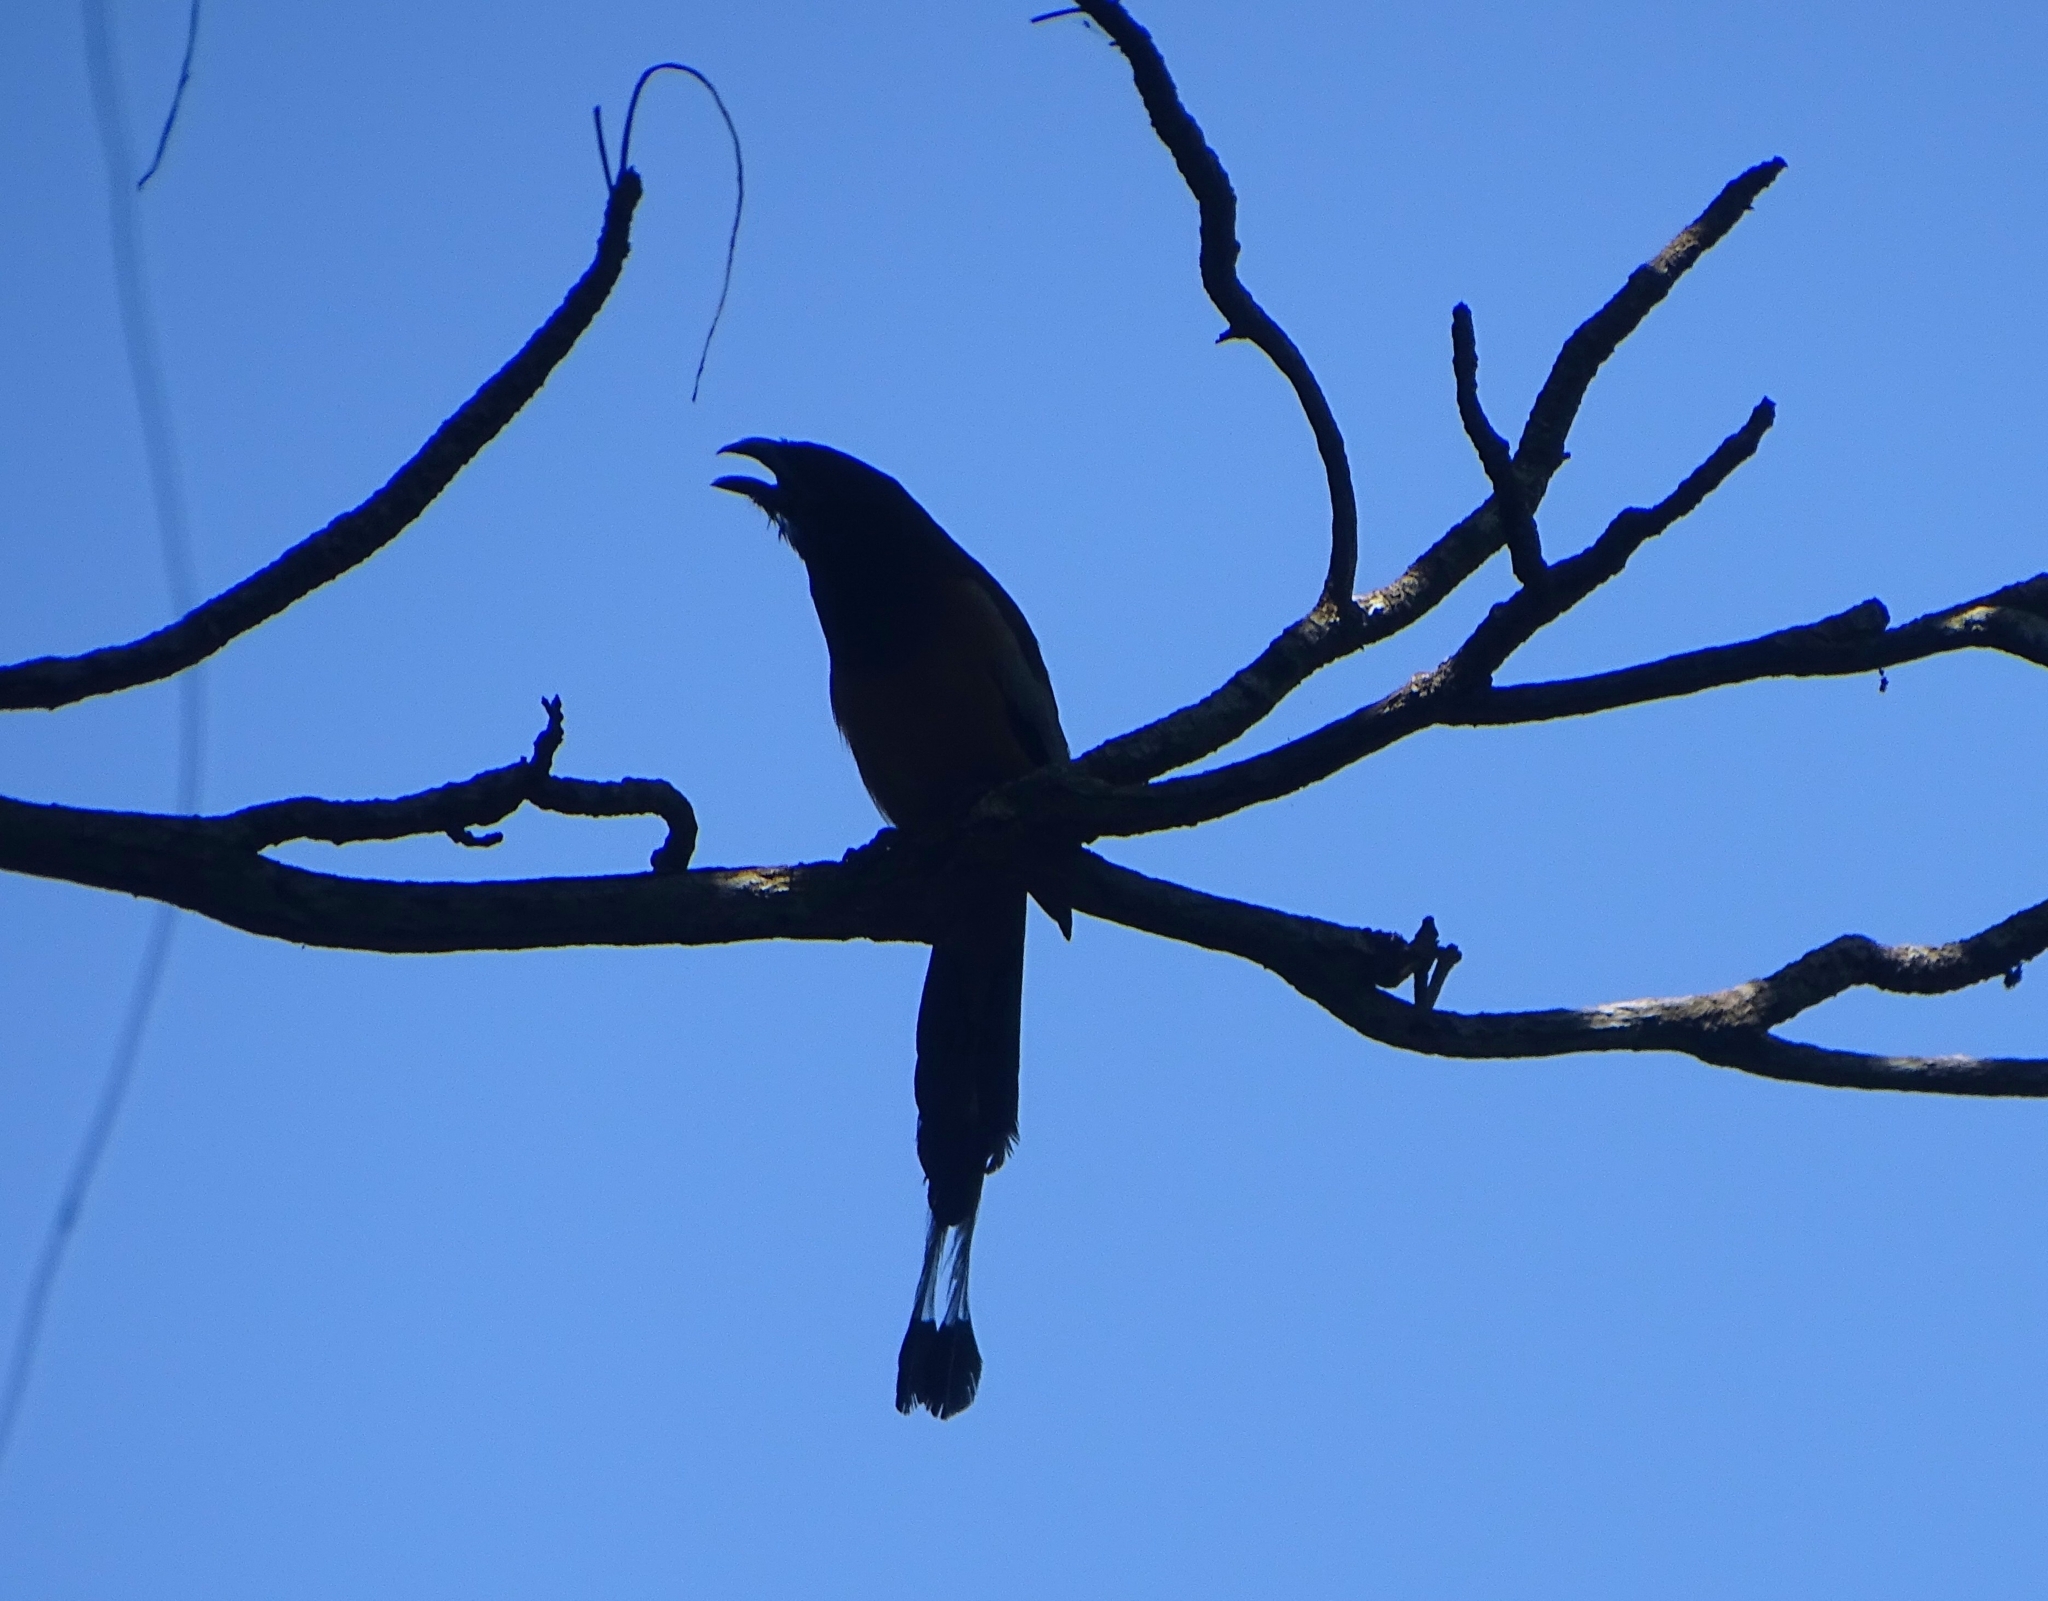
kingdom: Animalia
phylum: Chordata
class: Aves
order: Passeriformes
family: Corvidae
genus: Dendrocitta
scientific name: Dendrocitta vagabunda
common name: Rufous treepie
